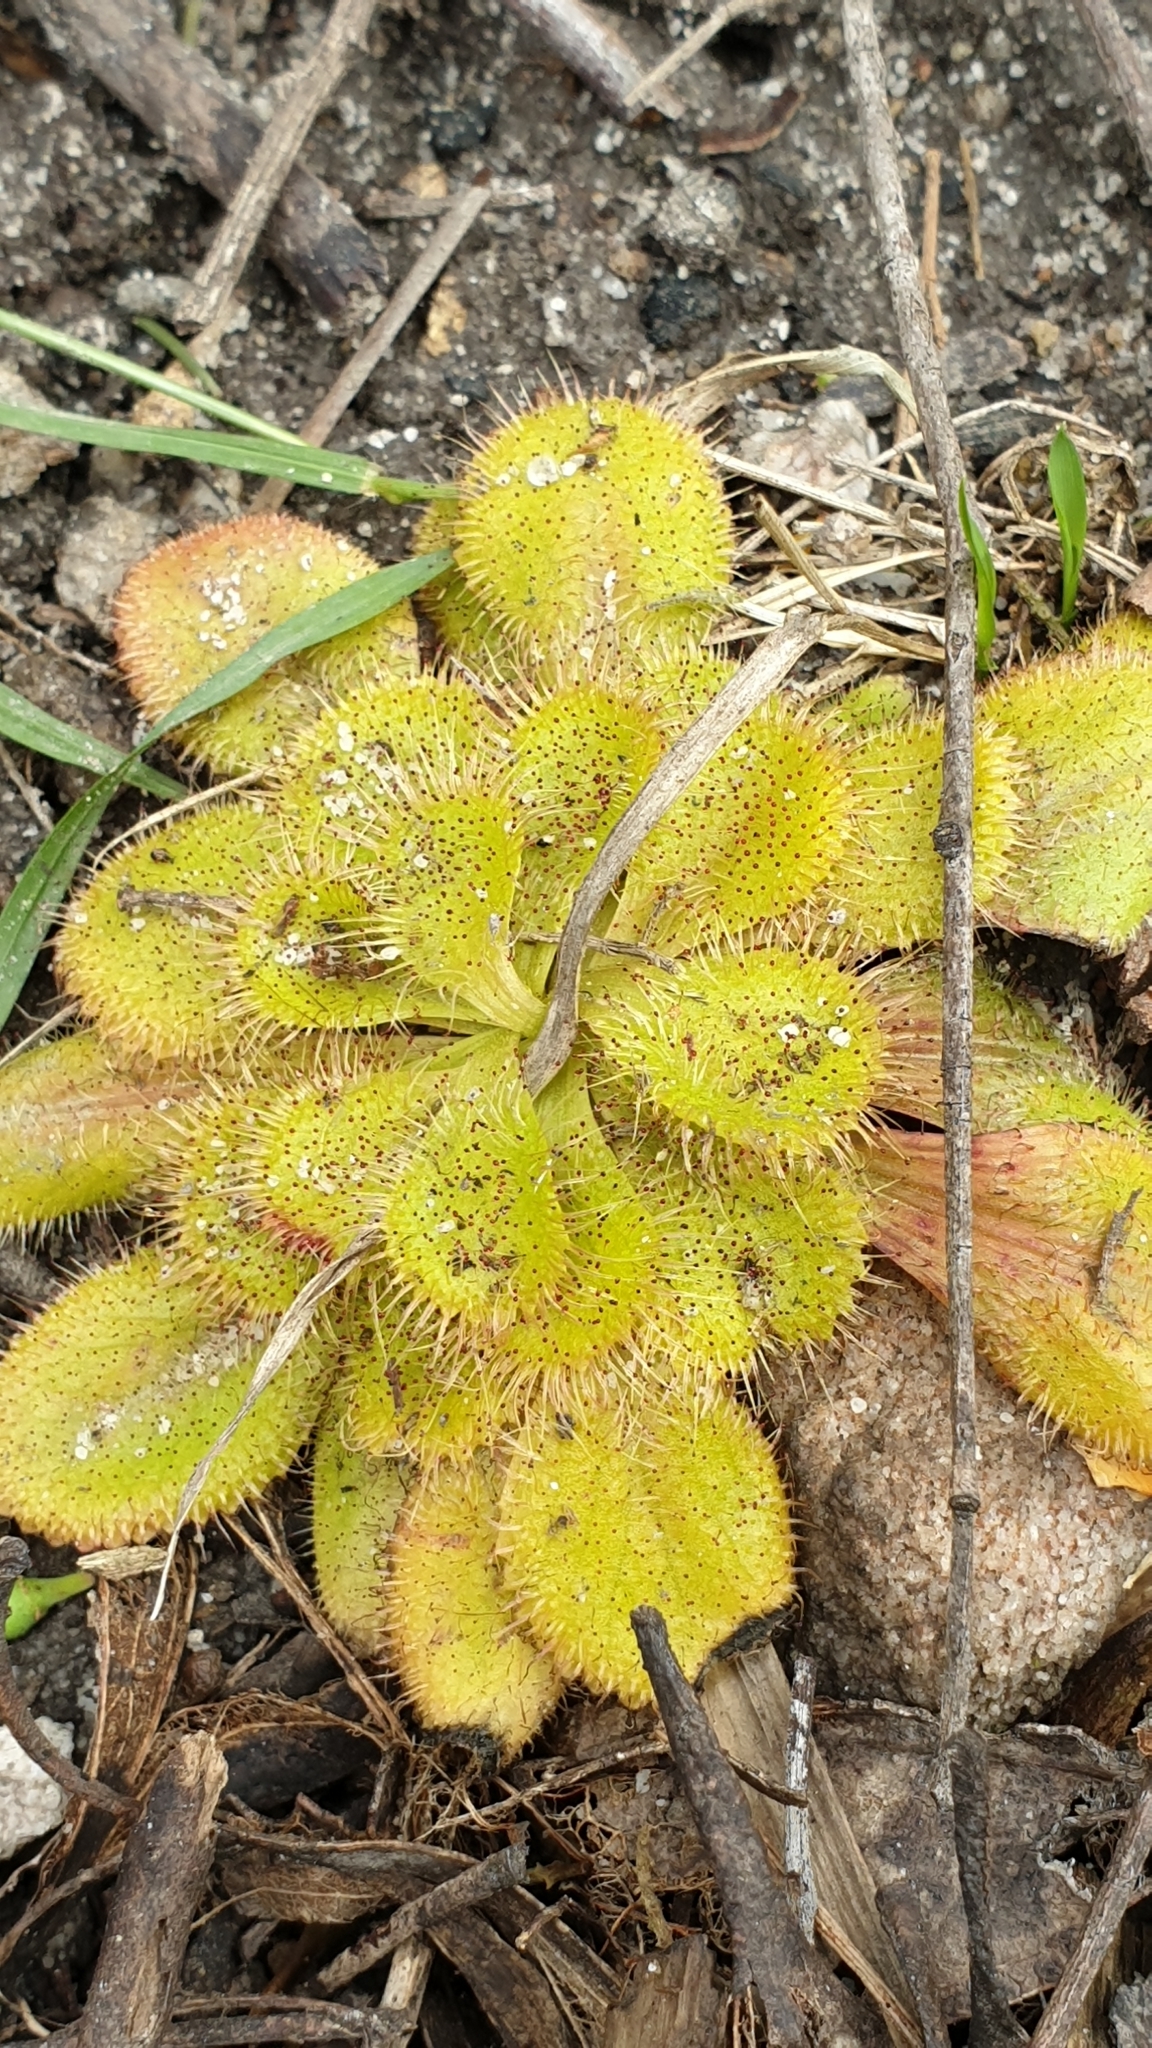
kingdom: Plantae
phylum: Tracheophyta
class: Magnoliopsida
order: Caryophyllales
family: Droseraceae
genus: Drosera
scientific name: Drosera whittakeri
